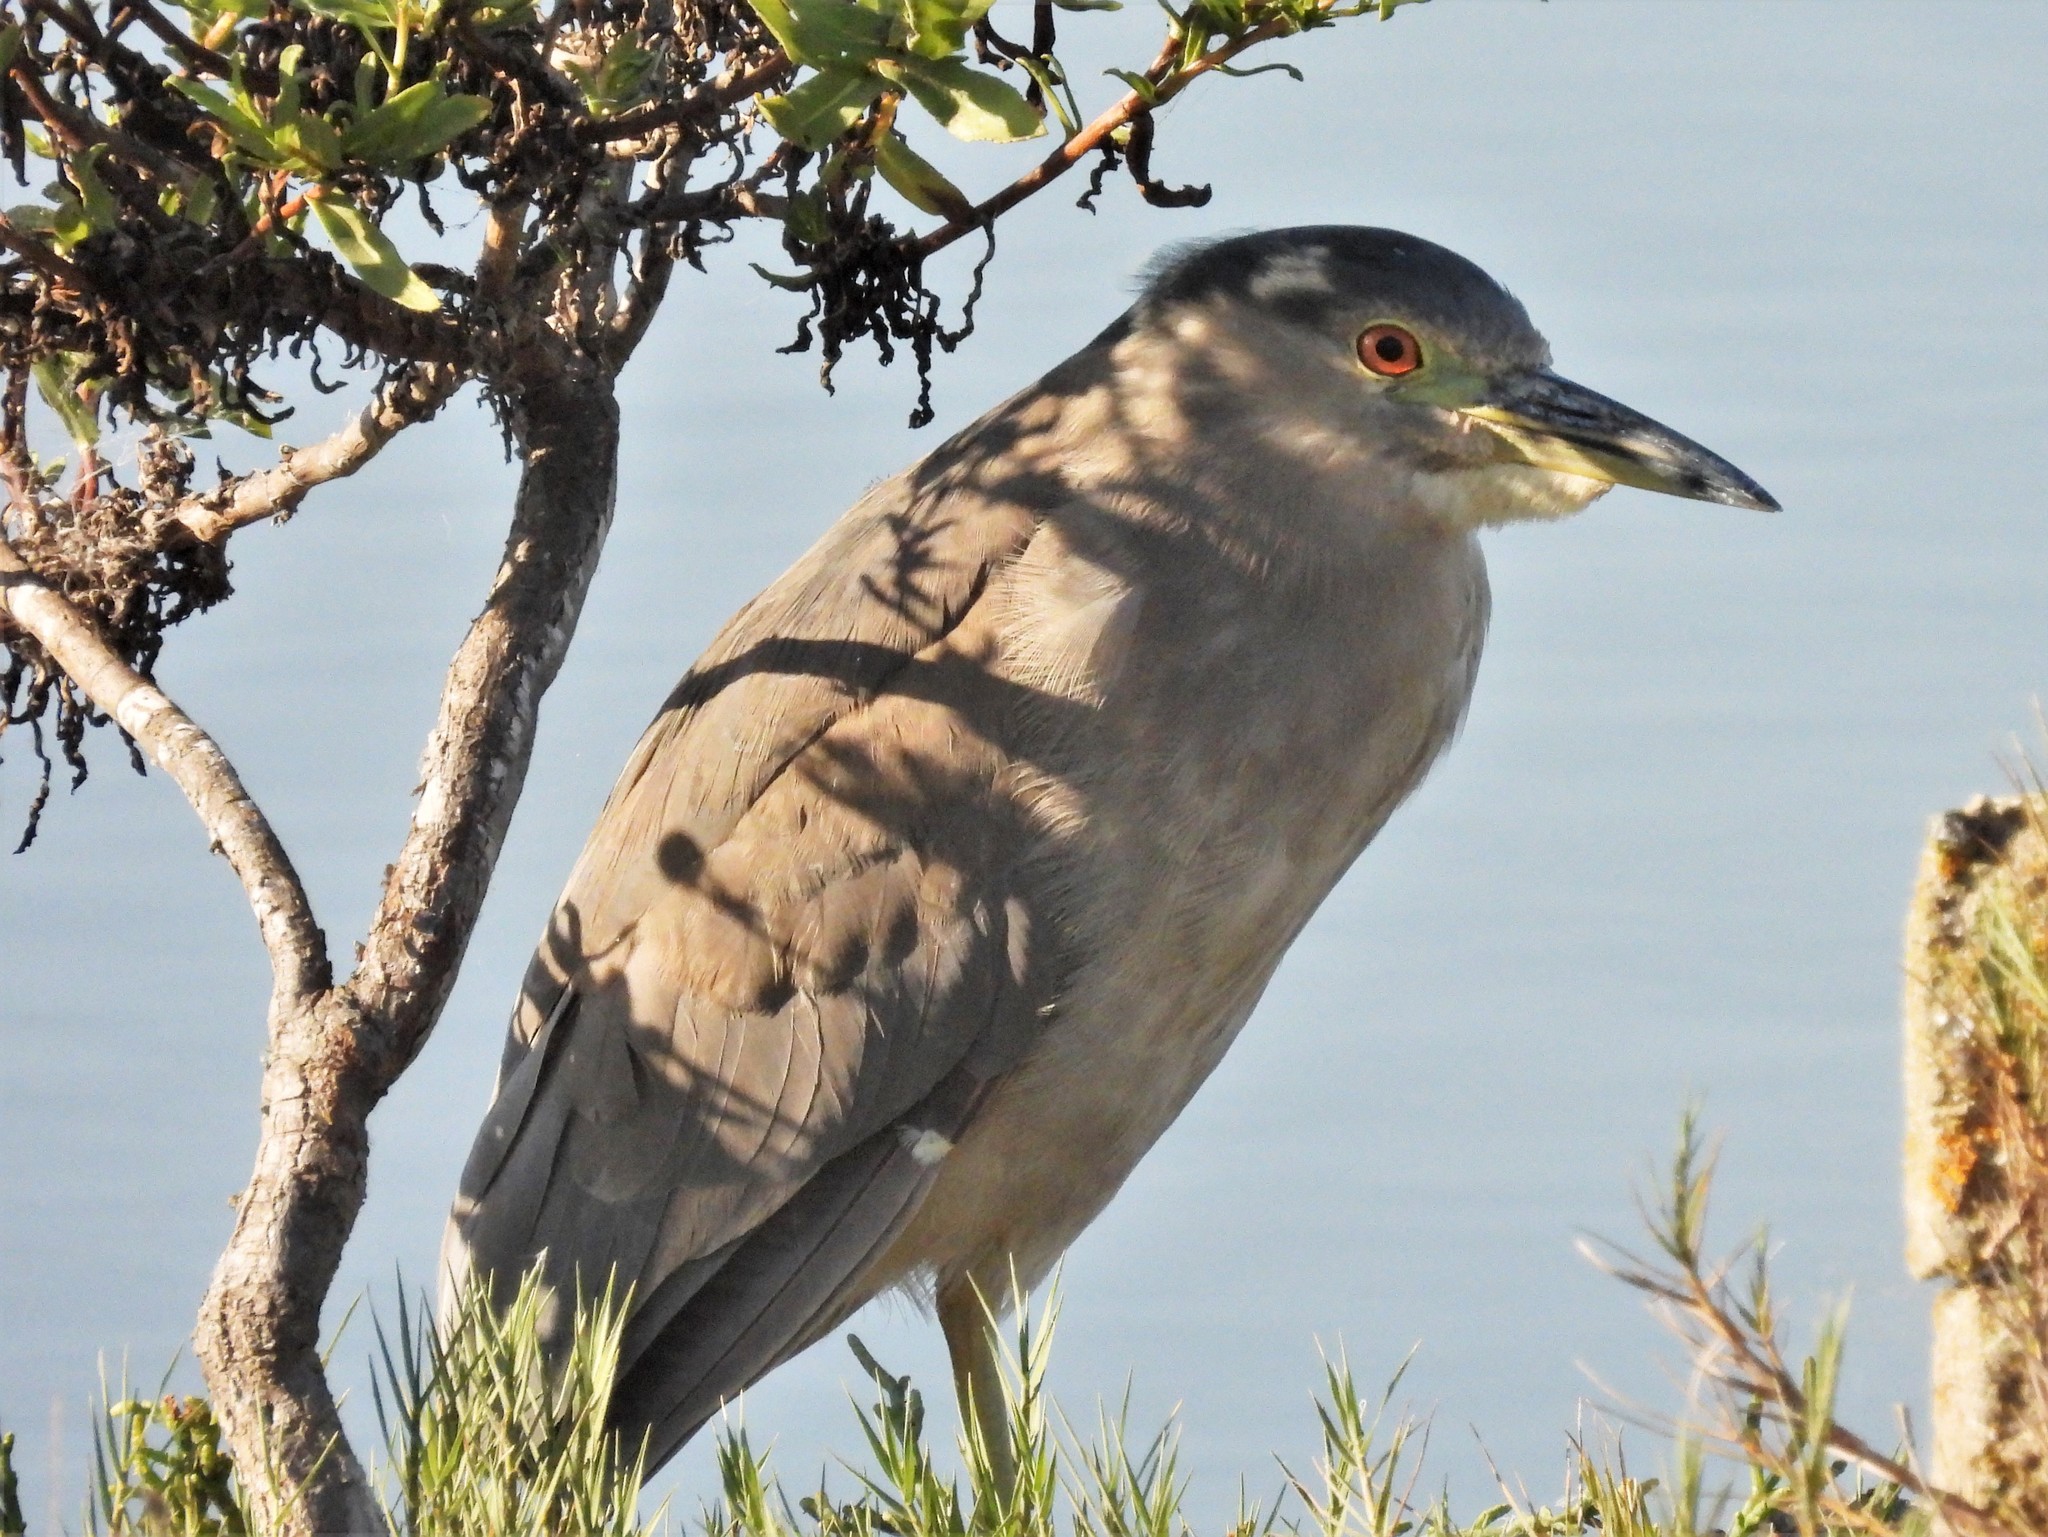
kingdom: Animalia
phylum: Chordata
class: Aves
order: Pelecaniformes
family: Ardeidae
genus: Nycticorax
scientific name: Nycticorax nycticorax
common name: Black-crowned night heron
